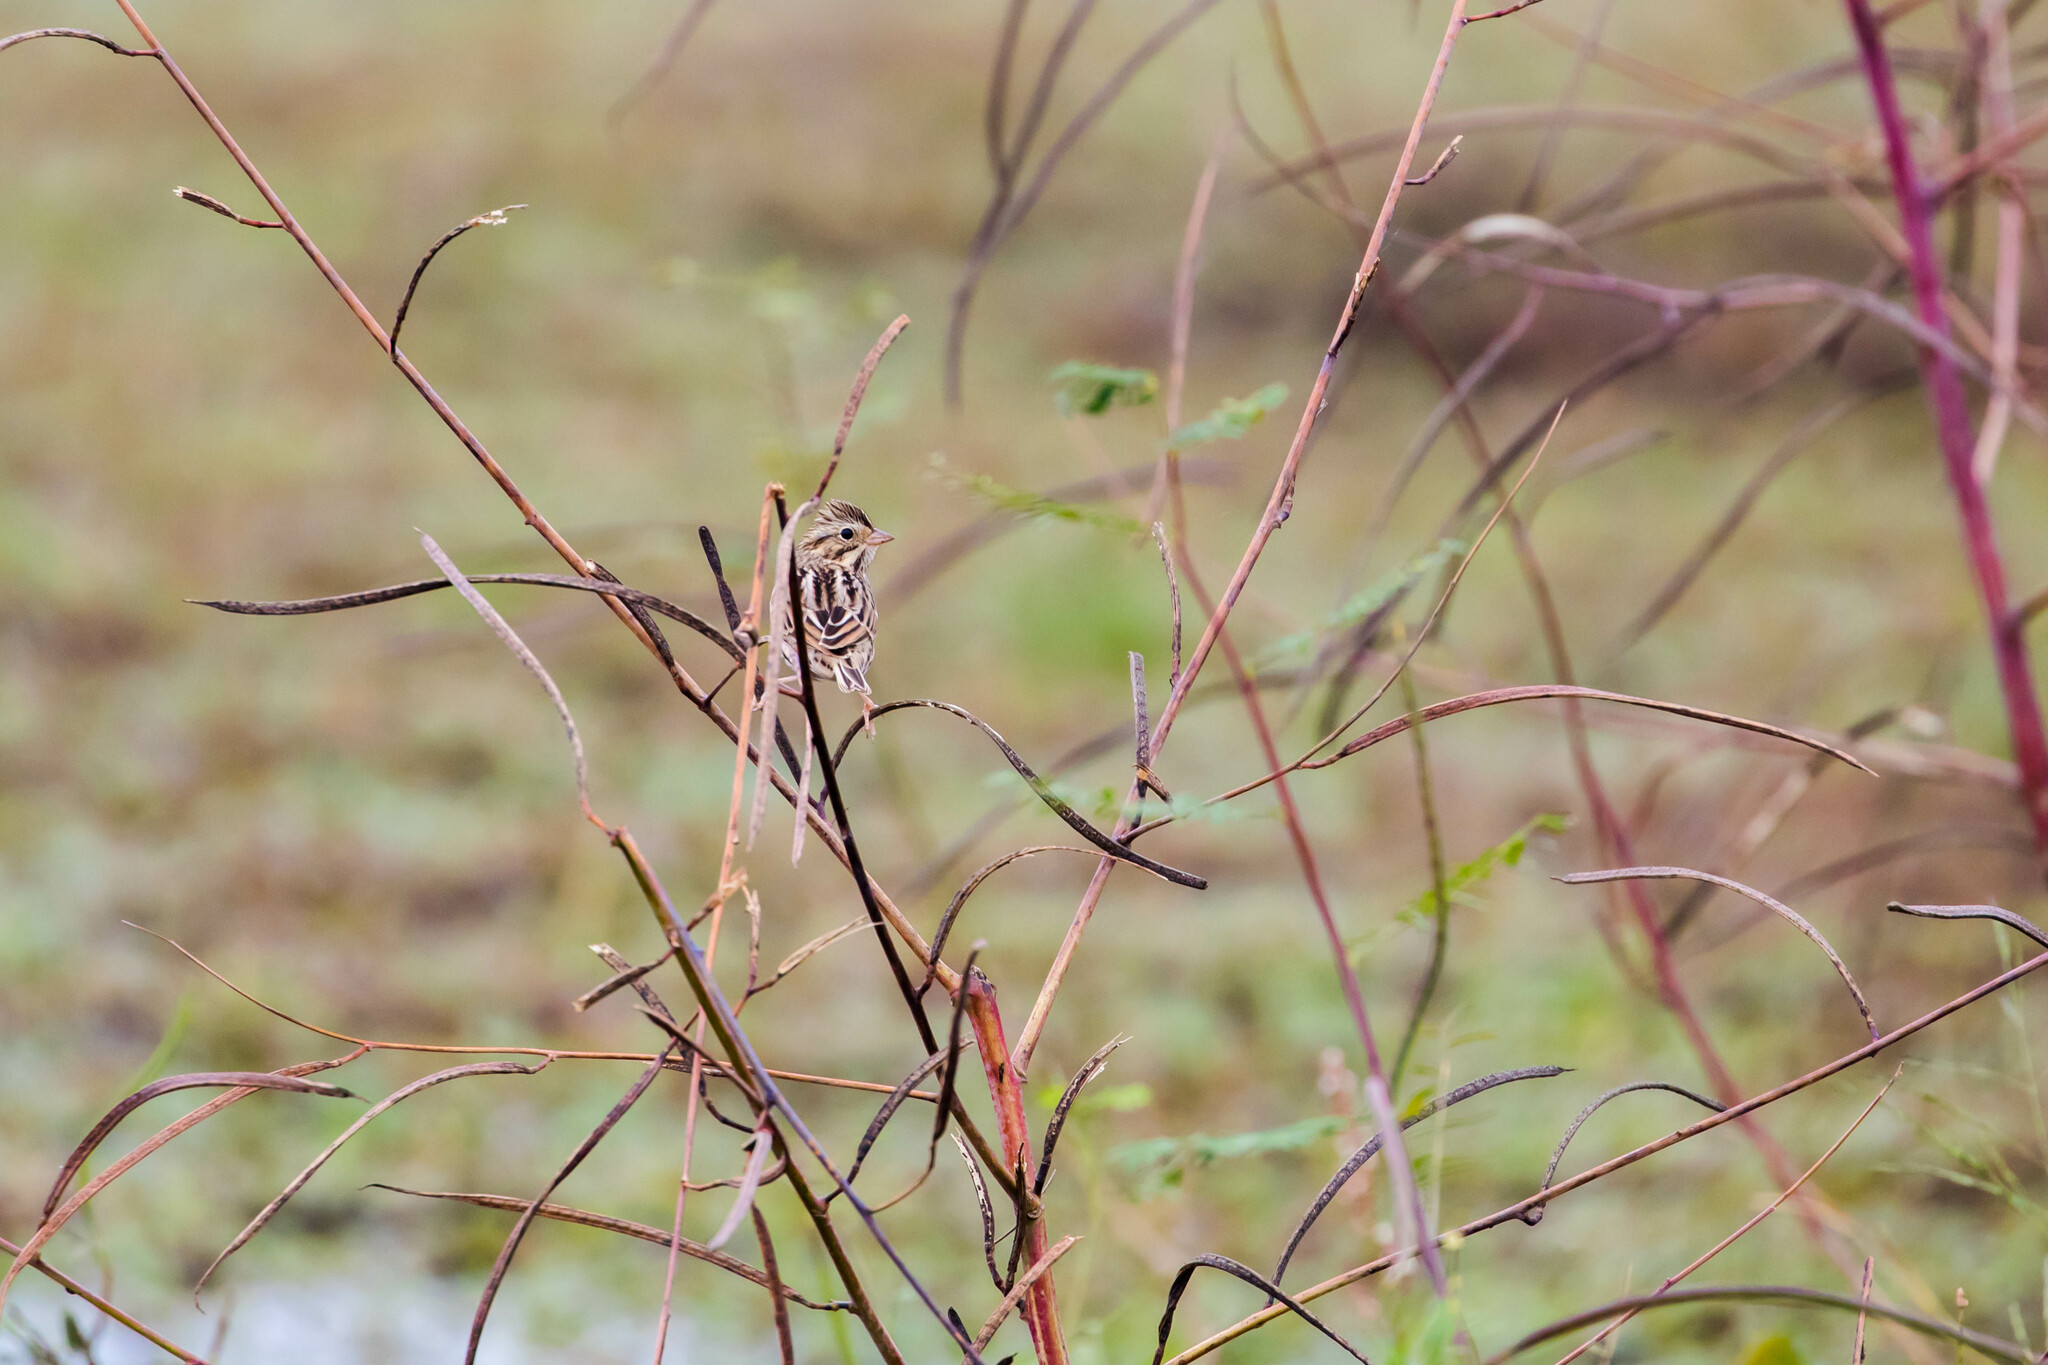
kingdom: Animalia
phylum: Chordata
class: Aves
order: Passeriformes
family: Passerellidae
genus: Passerculus
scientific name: Passerculus sandwichensis
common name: Savannah sparrow
